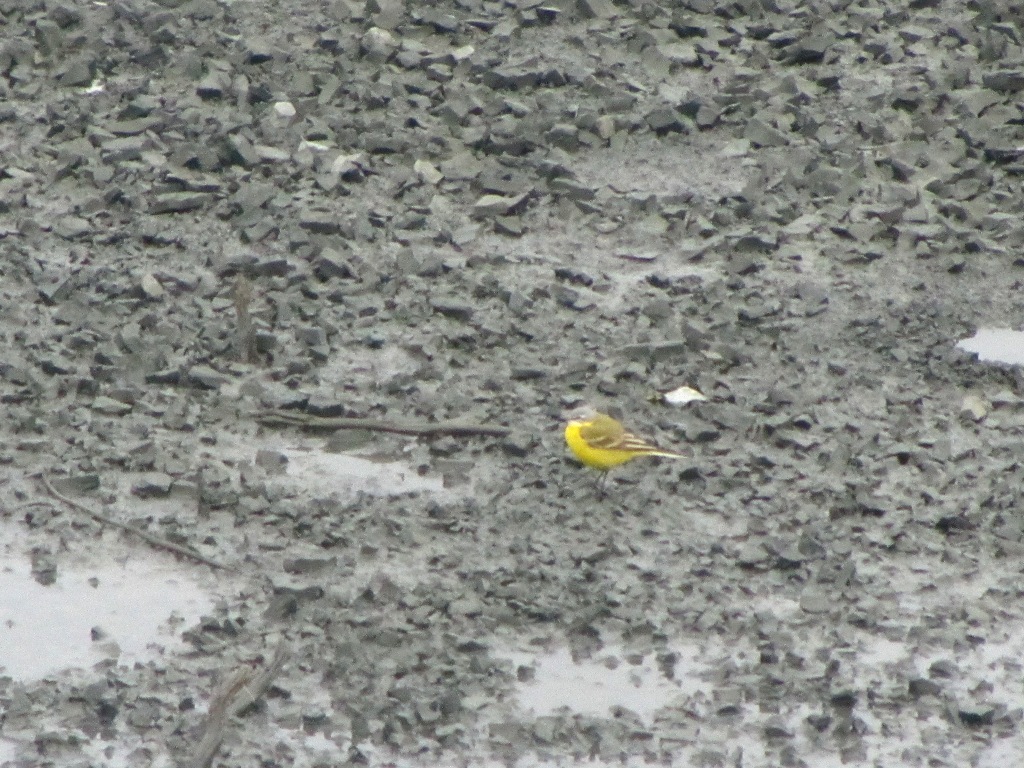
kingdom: Animalia
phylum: Chordata
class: Aves
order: Passeriformes
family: Motacillidae
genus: Motacilla
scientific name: Motacilla flava
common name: Western yellow wagtail
